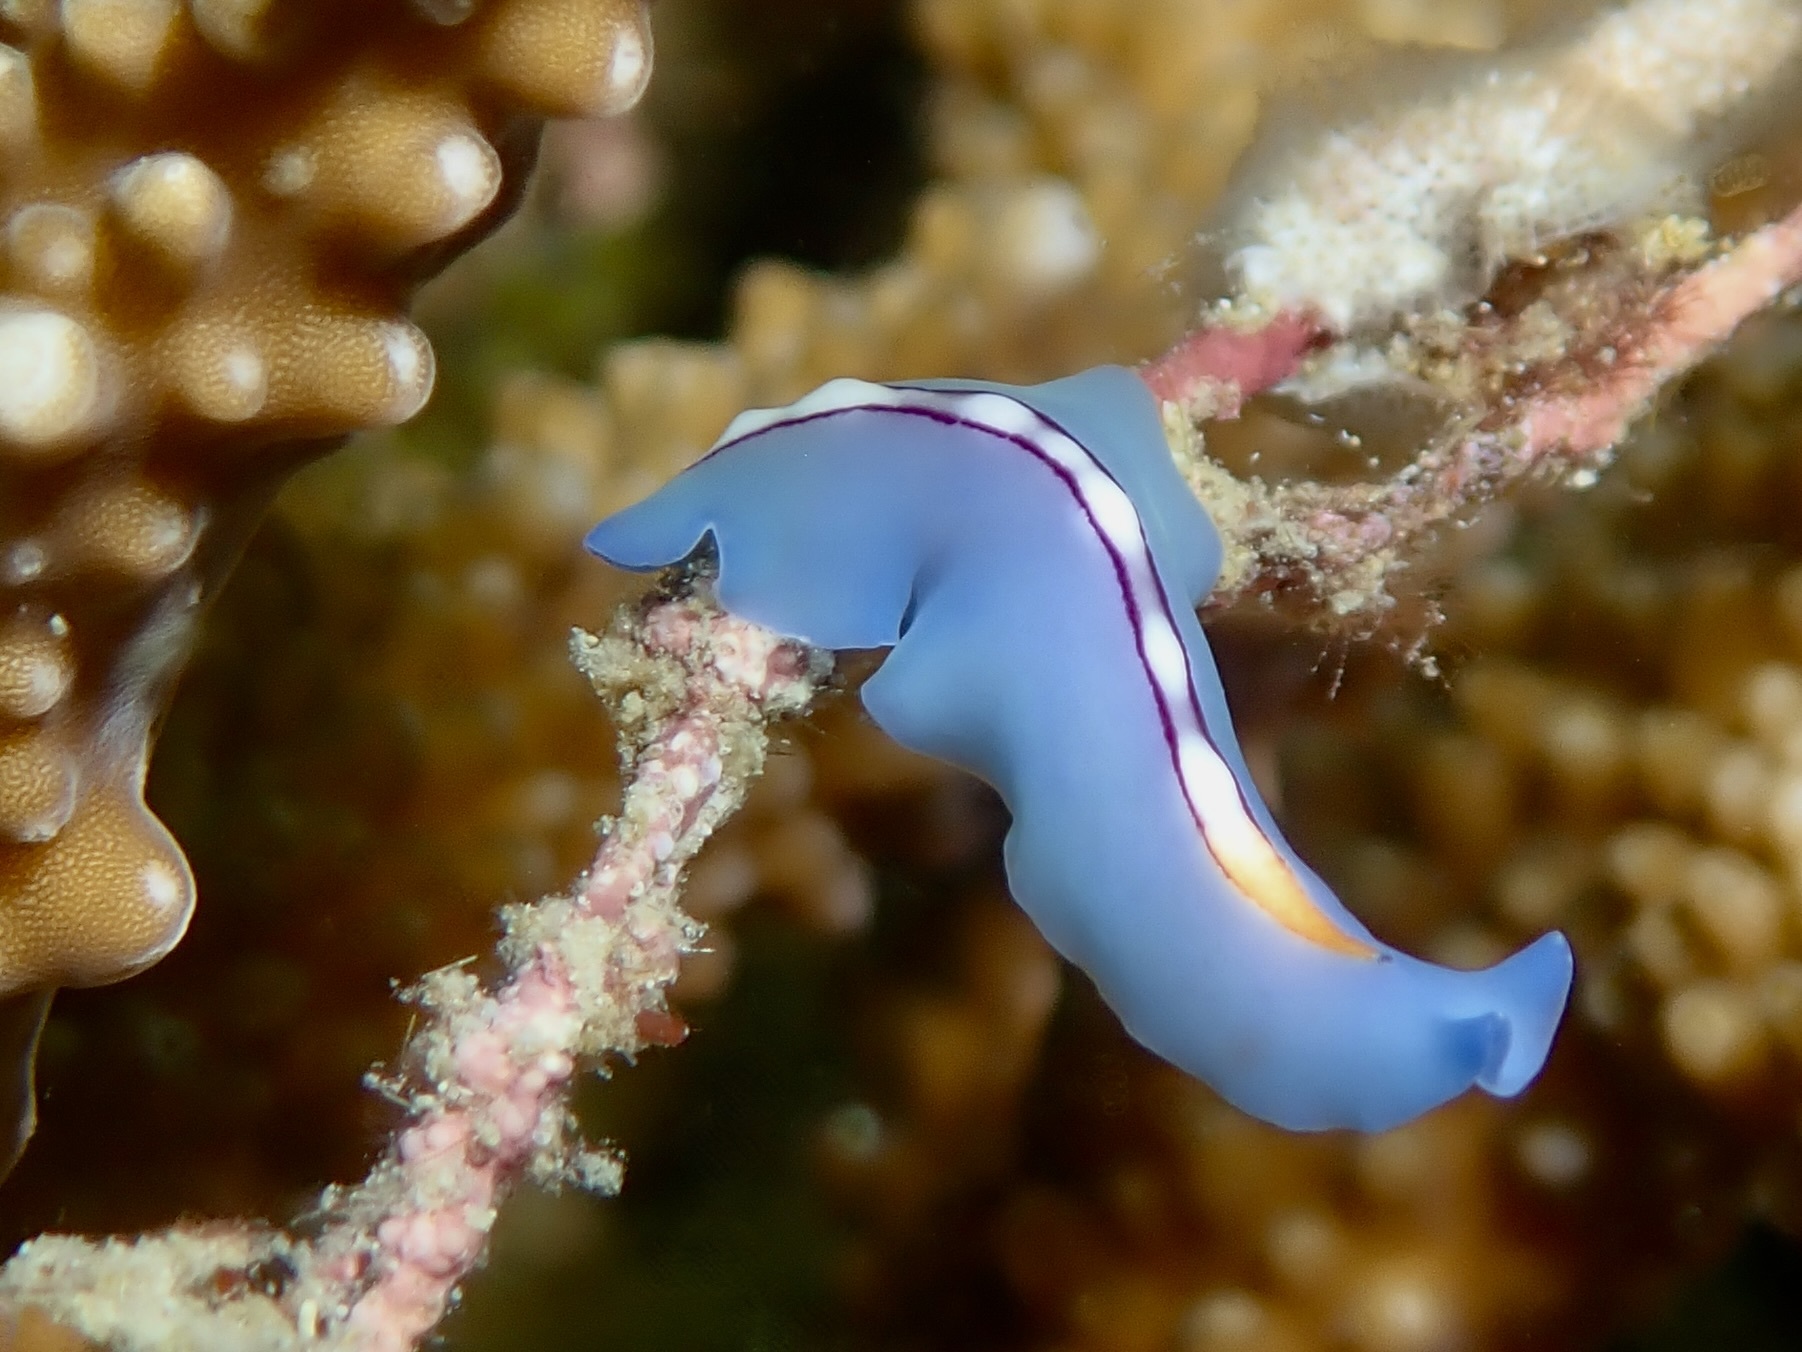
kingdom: Animalia
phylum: Platyhelminthes
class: Turbellaria
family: Pseudocerotidae
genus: Pseudoceros
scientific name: Pseudoceros liparus
